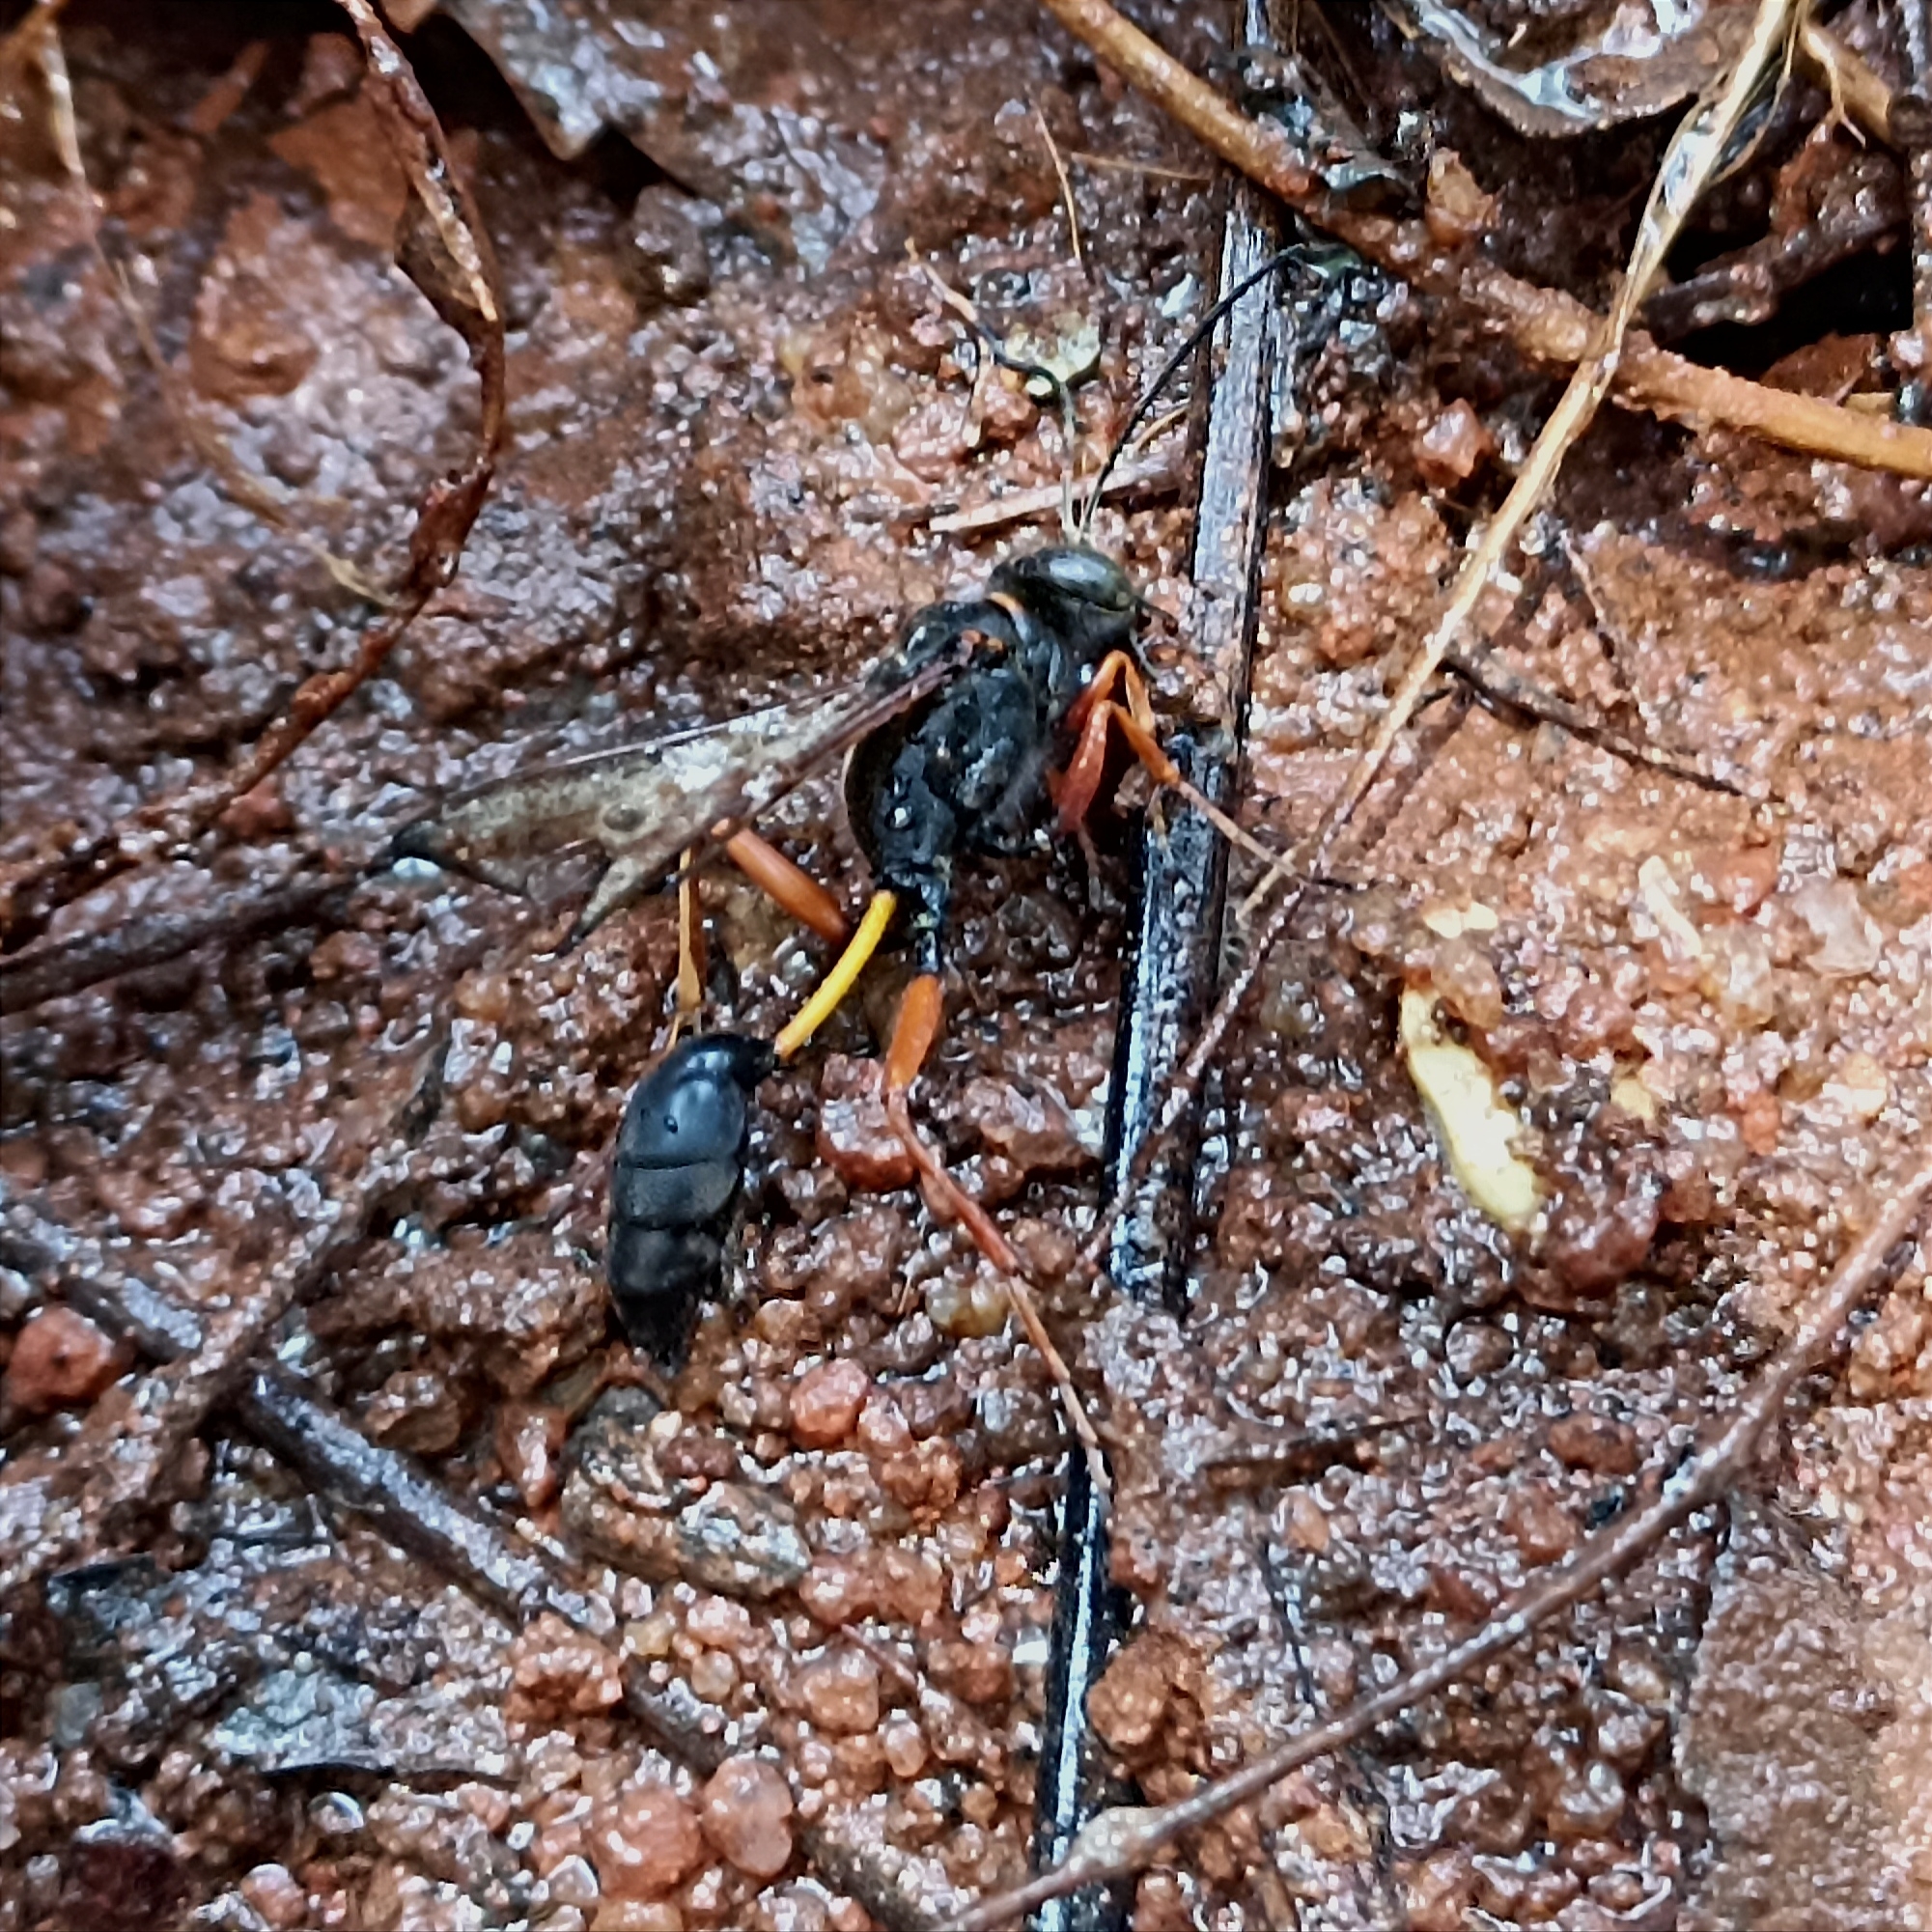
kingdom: Animalia
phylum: Arthropoda
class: Insecta
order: Hymenoptera
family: Sphecidae
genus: Sceliphron
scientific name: Sceliphron coromandelicum
